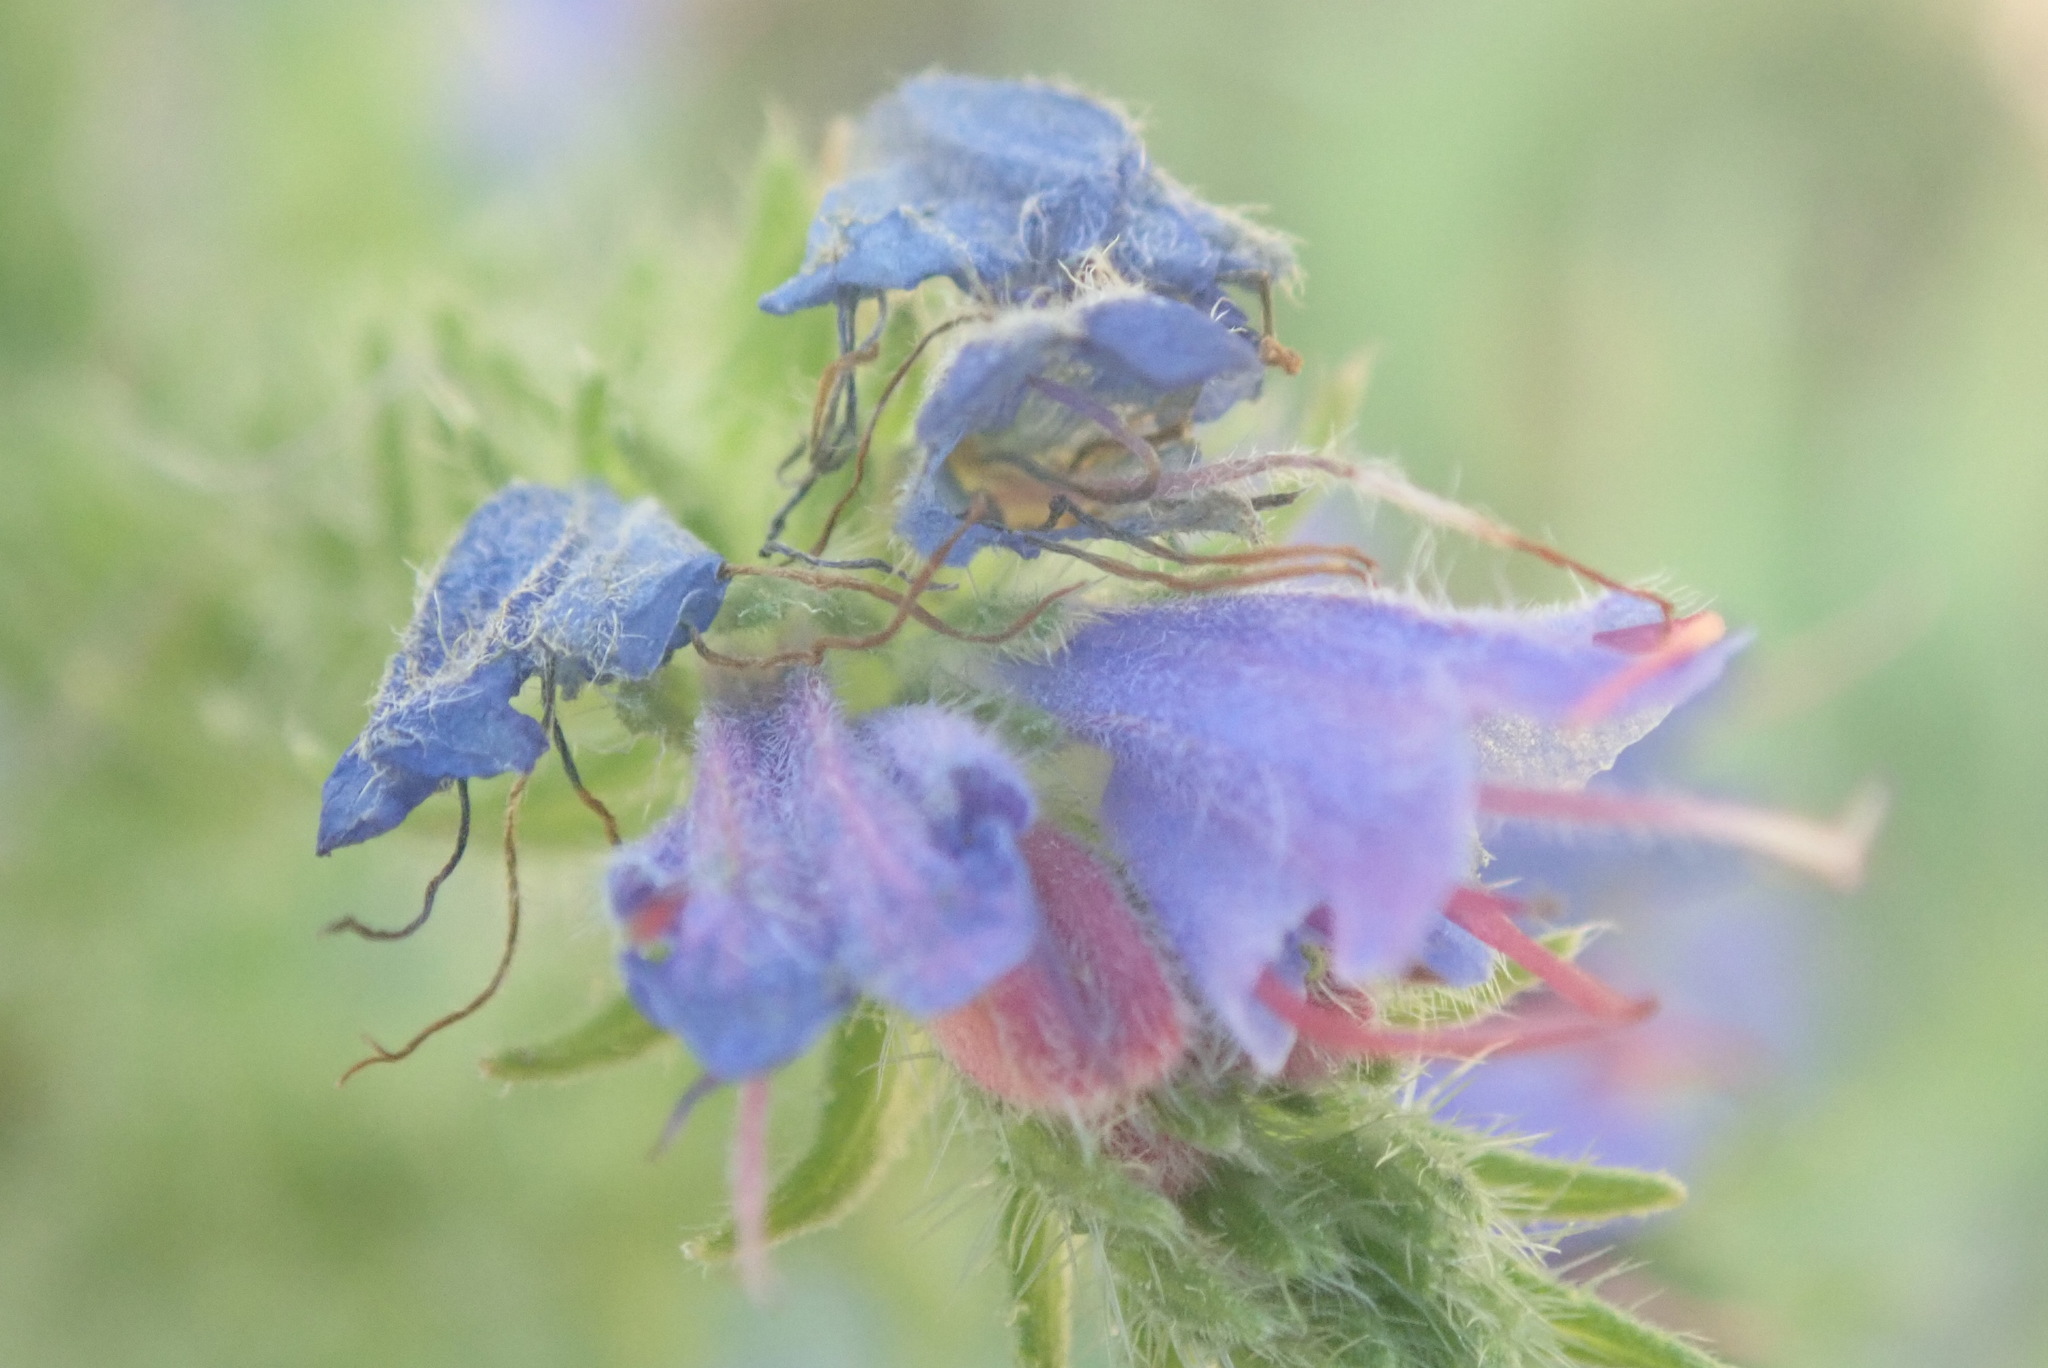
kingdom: Plantae
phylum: Tracheophyta
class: Magnoliopsida
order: Boraginales
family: Boraginaceae
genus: Echium
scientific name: Echium vulgare
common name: Common viper's bugloss
